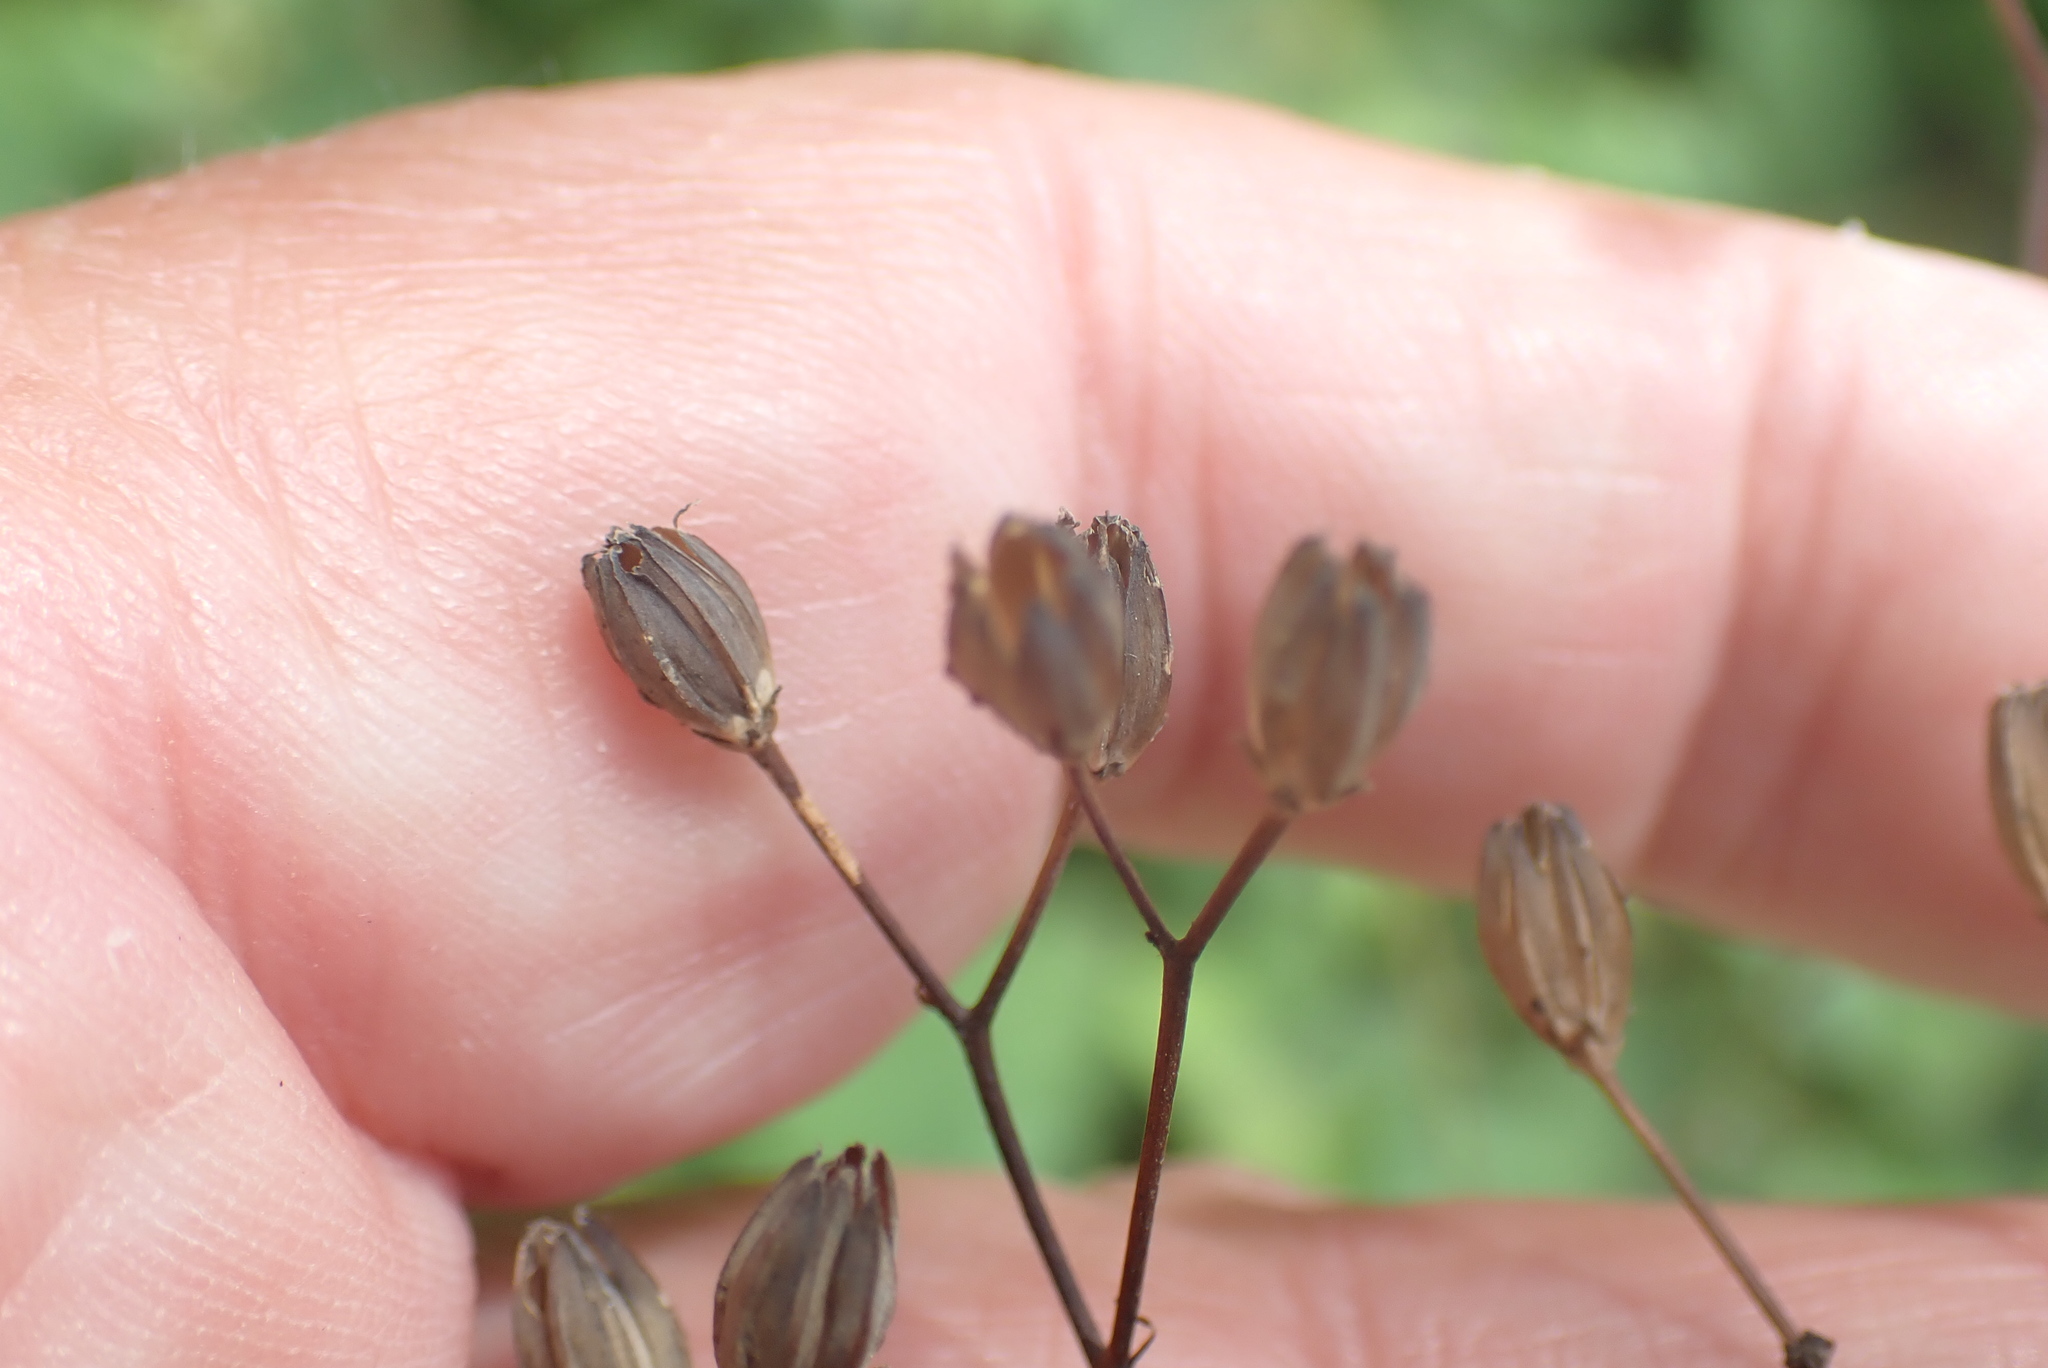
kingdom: Plantae
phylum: Tracheophyta
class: Magnoliopsida
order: Asterales
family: Asteraceae
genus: Lapsana
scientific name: Lapsana communis
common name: Nipplewort
